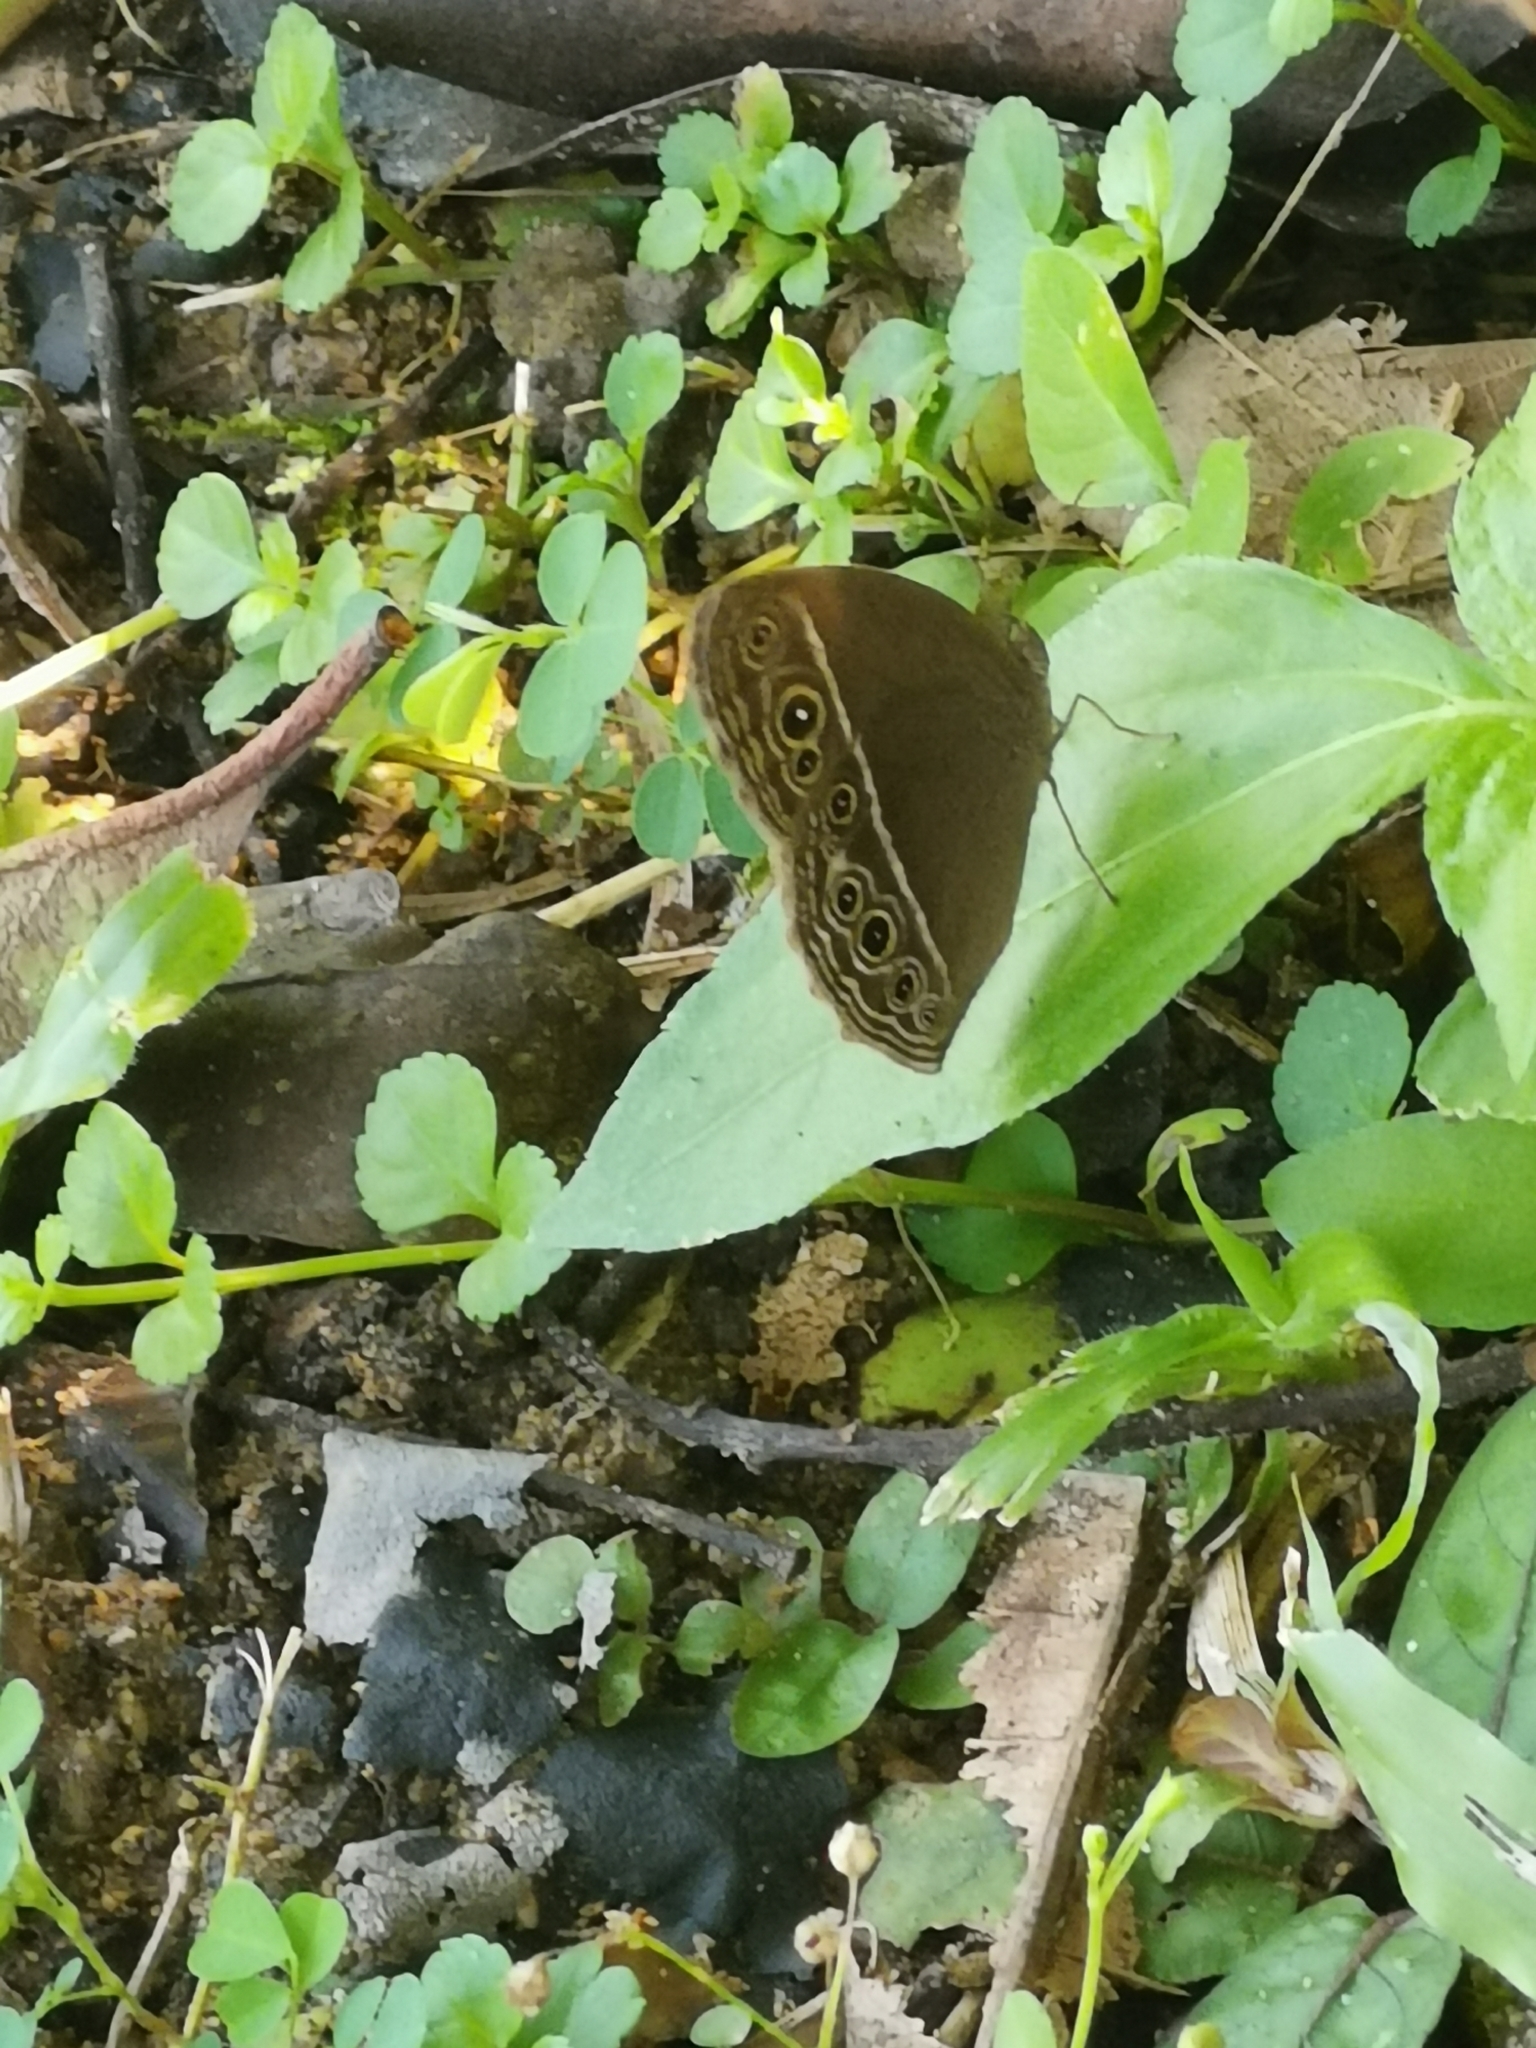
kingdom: Animalia
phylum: Arthropoda
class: Insecta
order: Lepidoptera
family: Nymphalidae
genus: Mycalesis
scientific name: Mycalesis mineus
